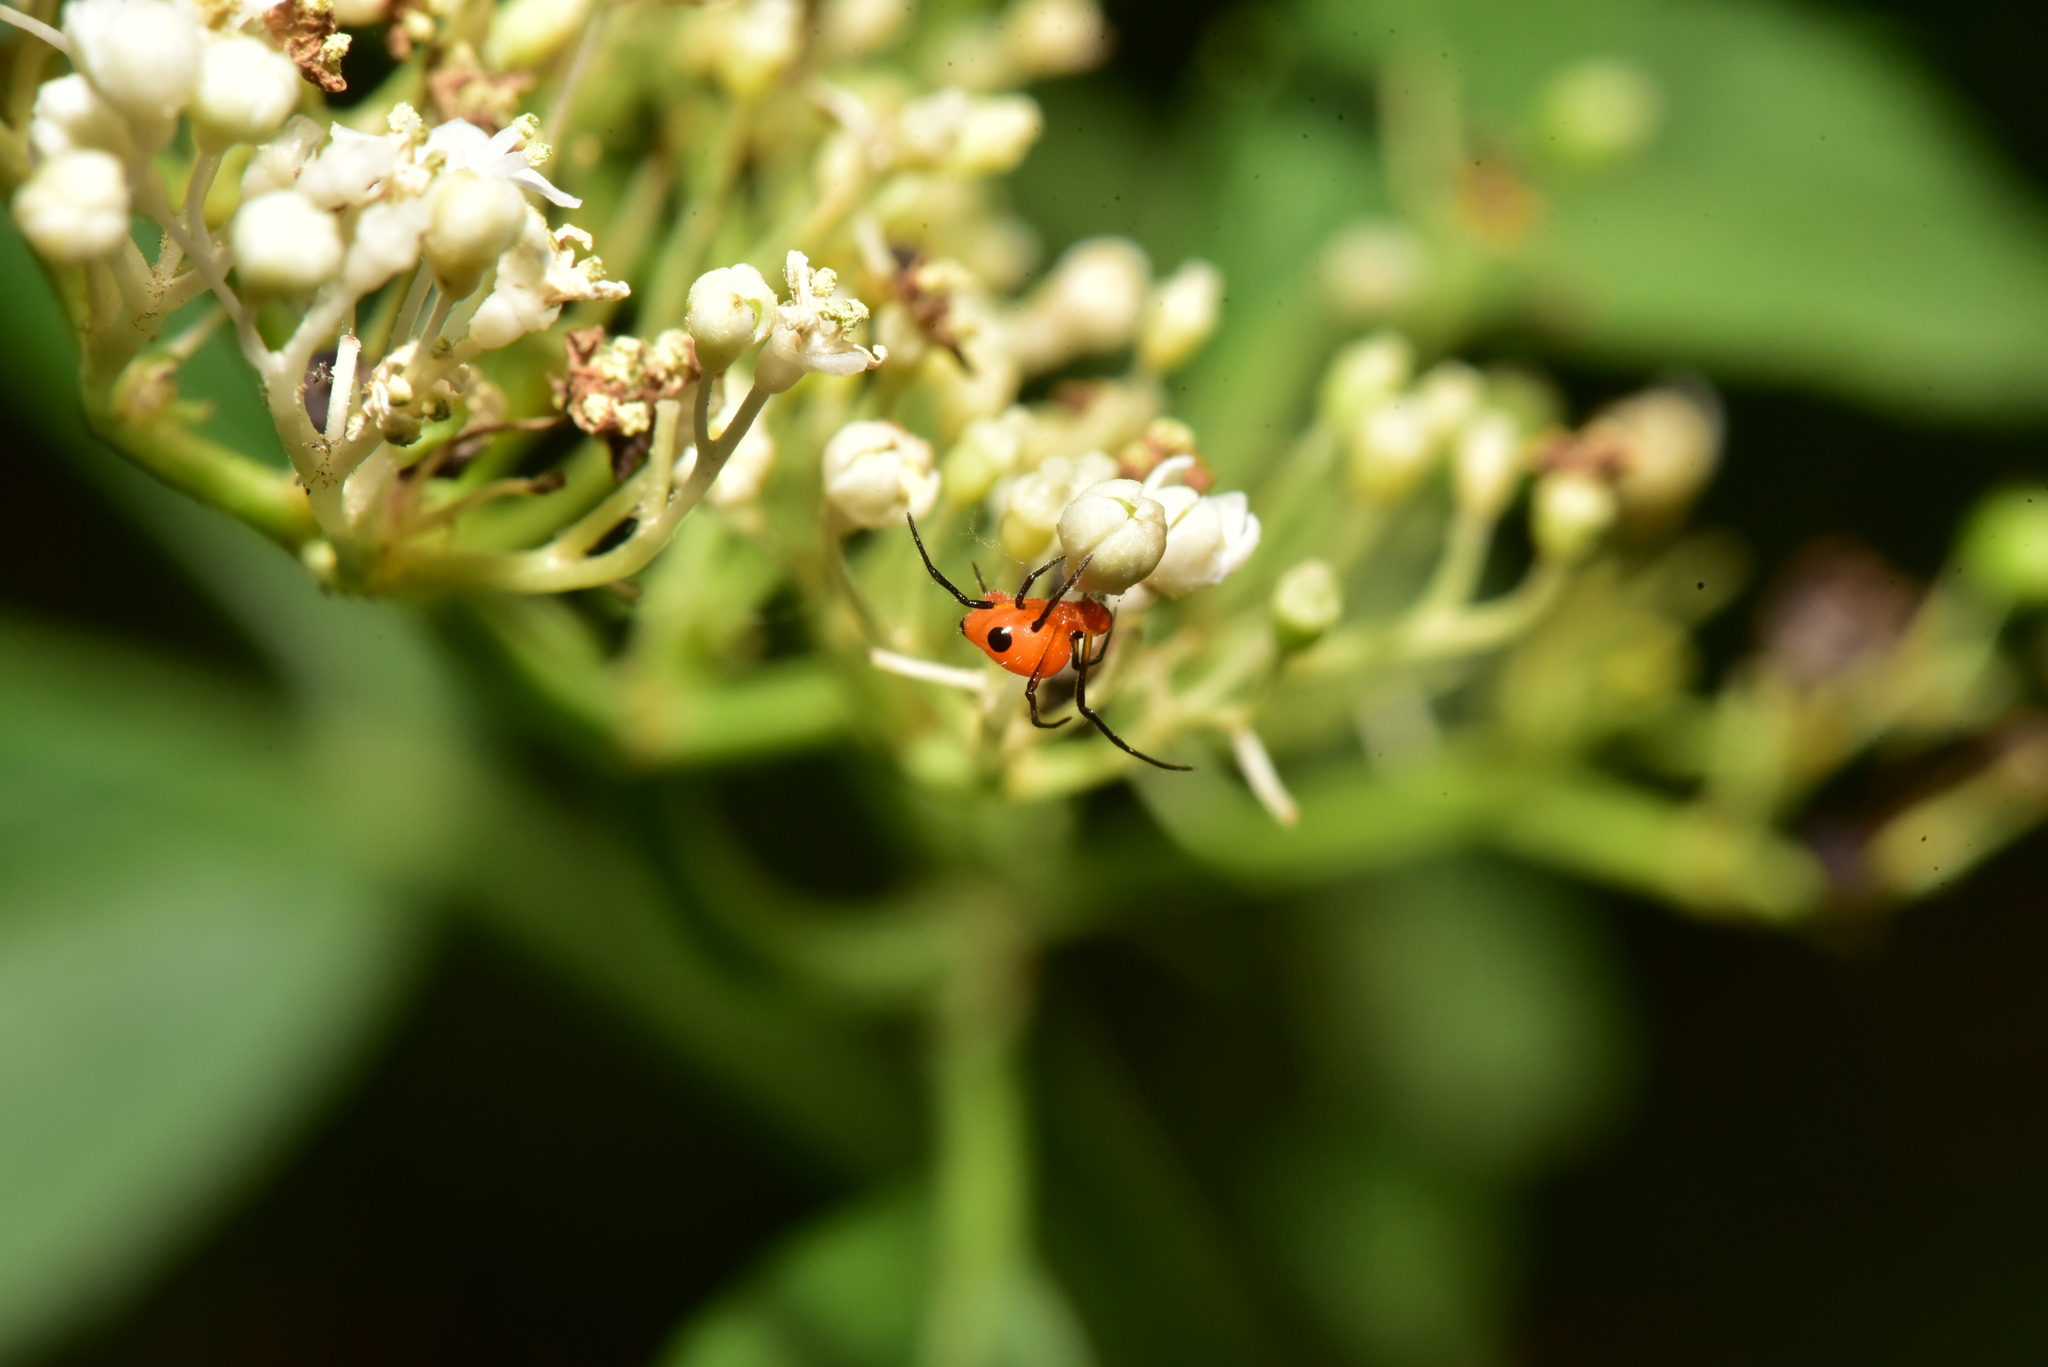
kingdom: Animalia
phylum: Arthropoda
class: Arachnida
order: Araneae
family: Theridiidae
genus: Chrysso
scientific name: Chrysso trimaculata
